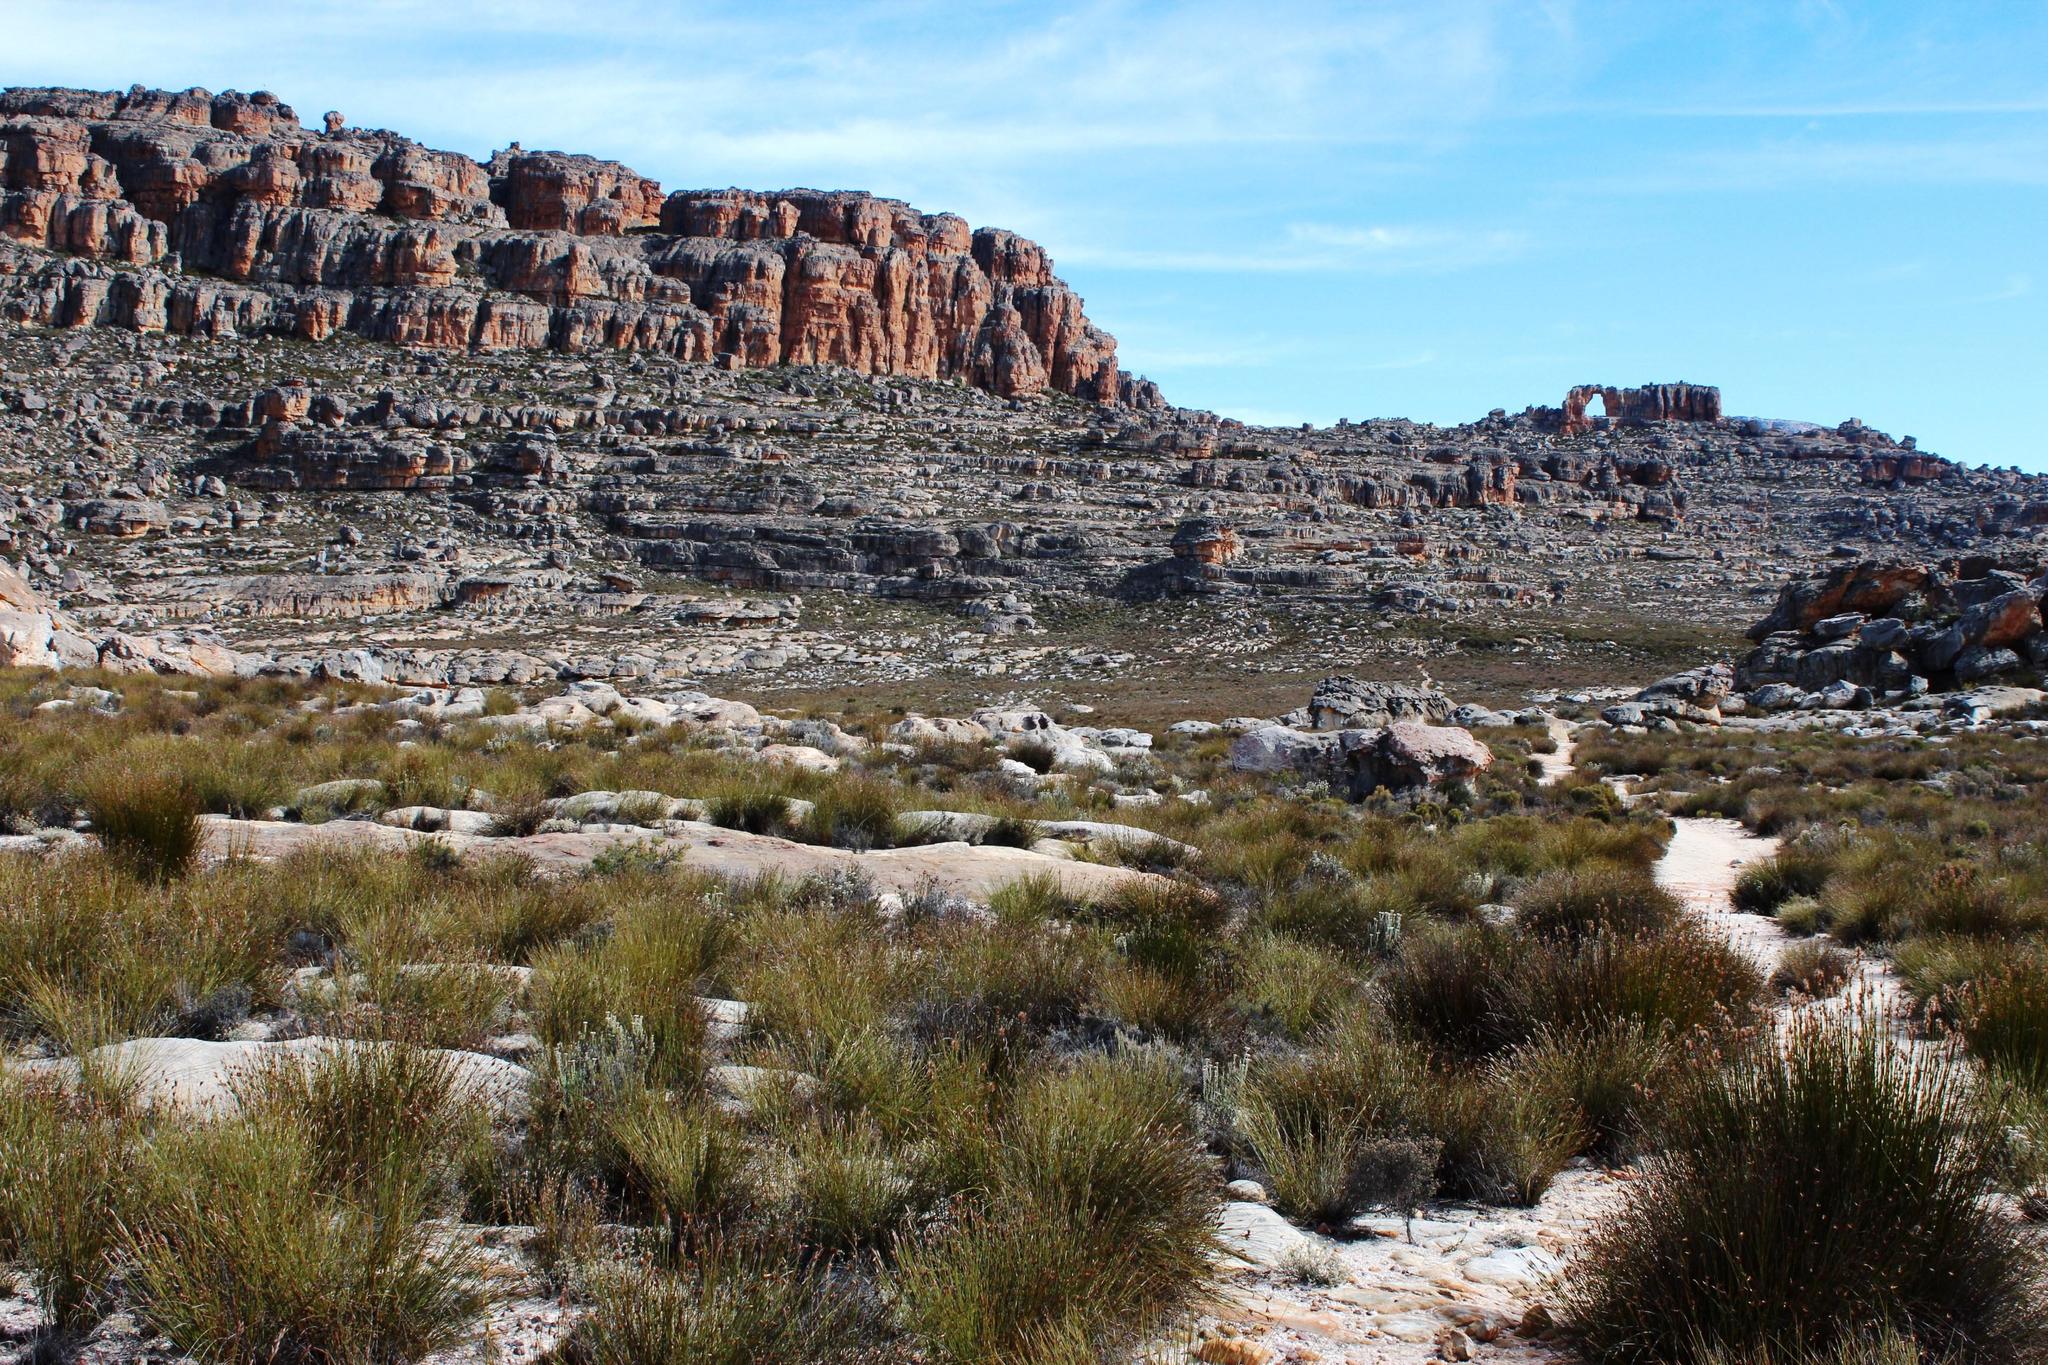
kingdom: Plantae
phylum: Tracheophyta
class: Liliopsida
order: Poales
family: Restionaceae
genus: Askidiosperma
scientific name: Askidiosperma capitatum
